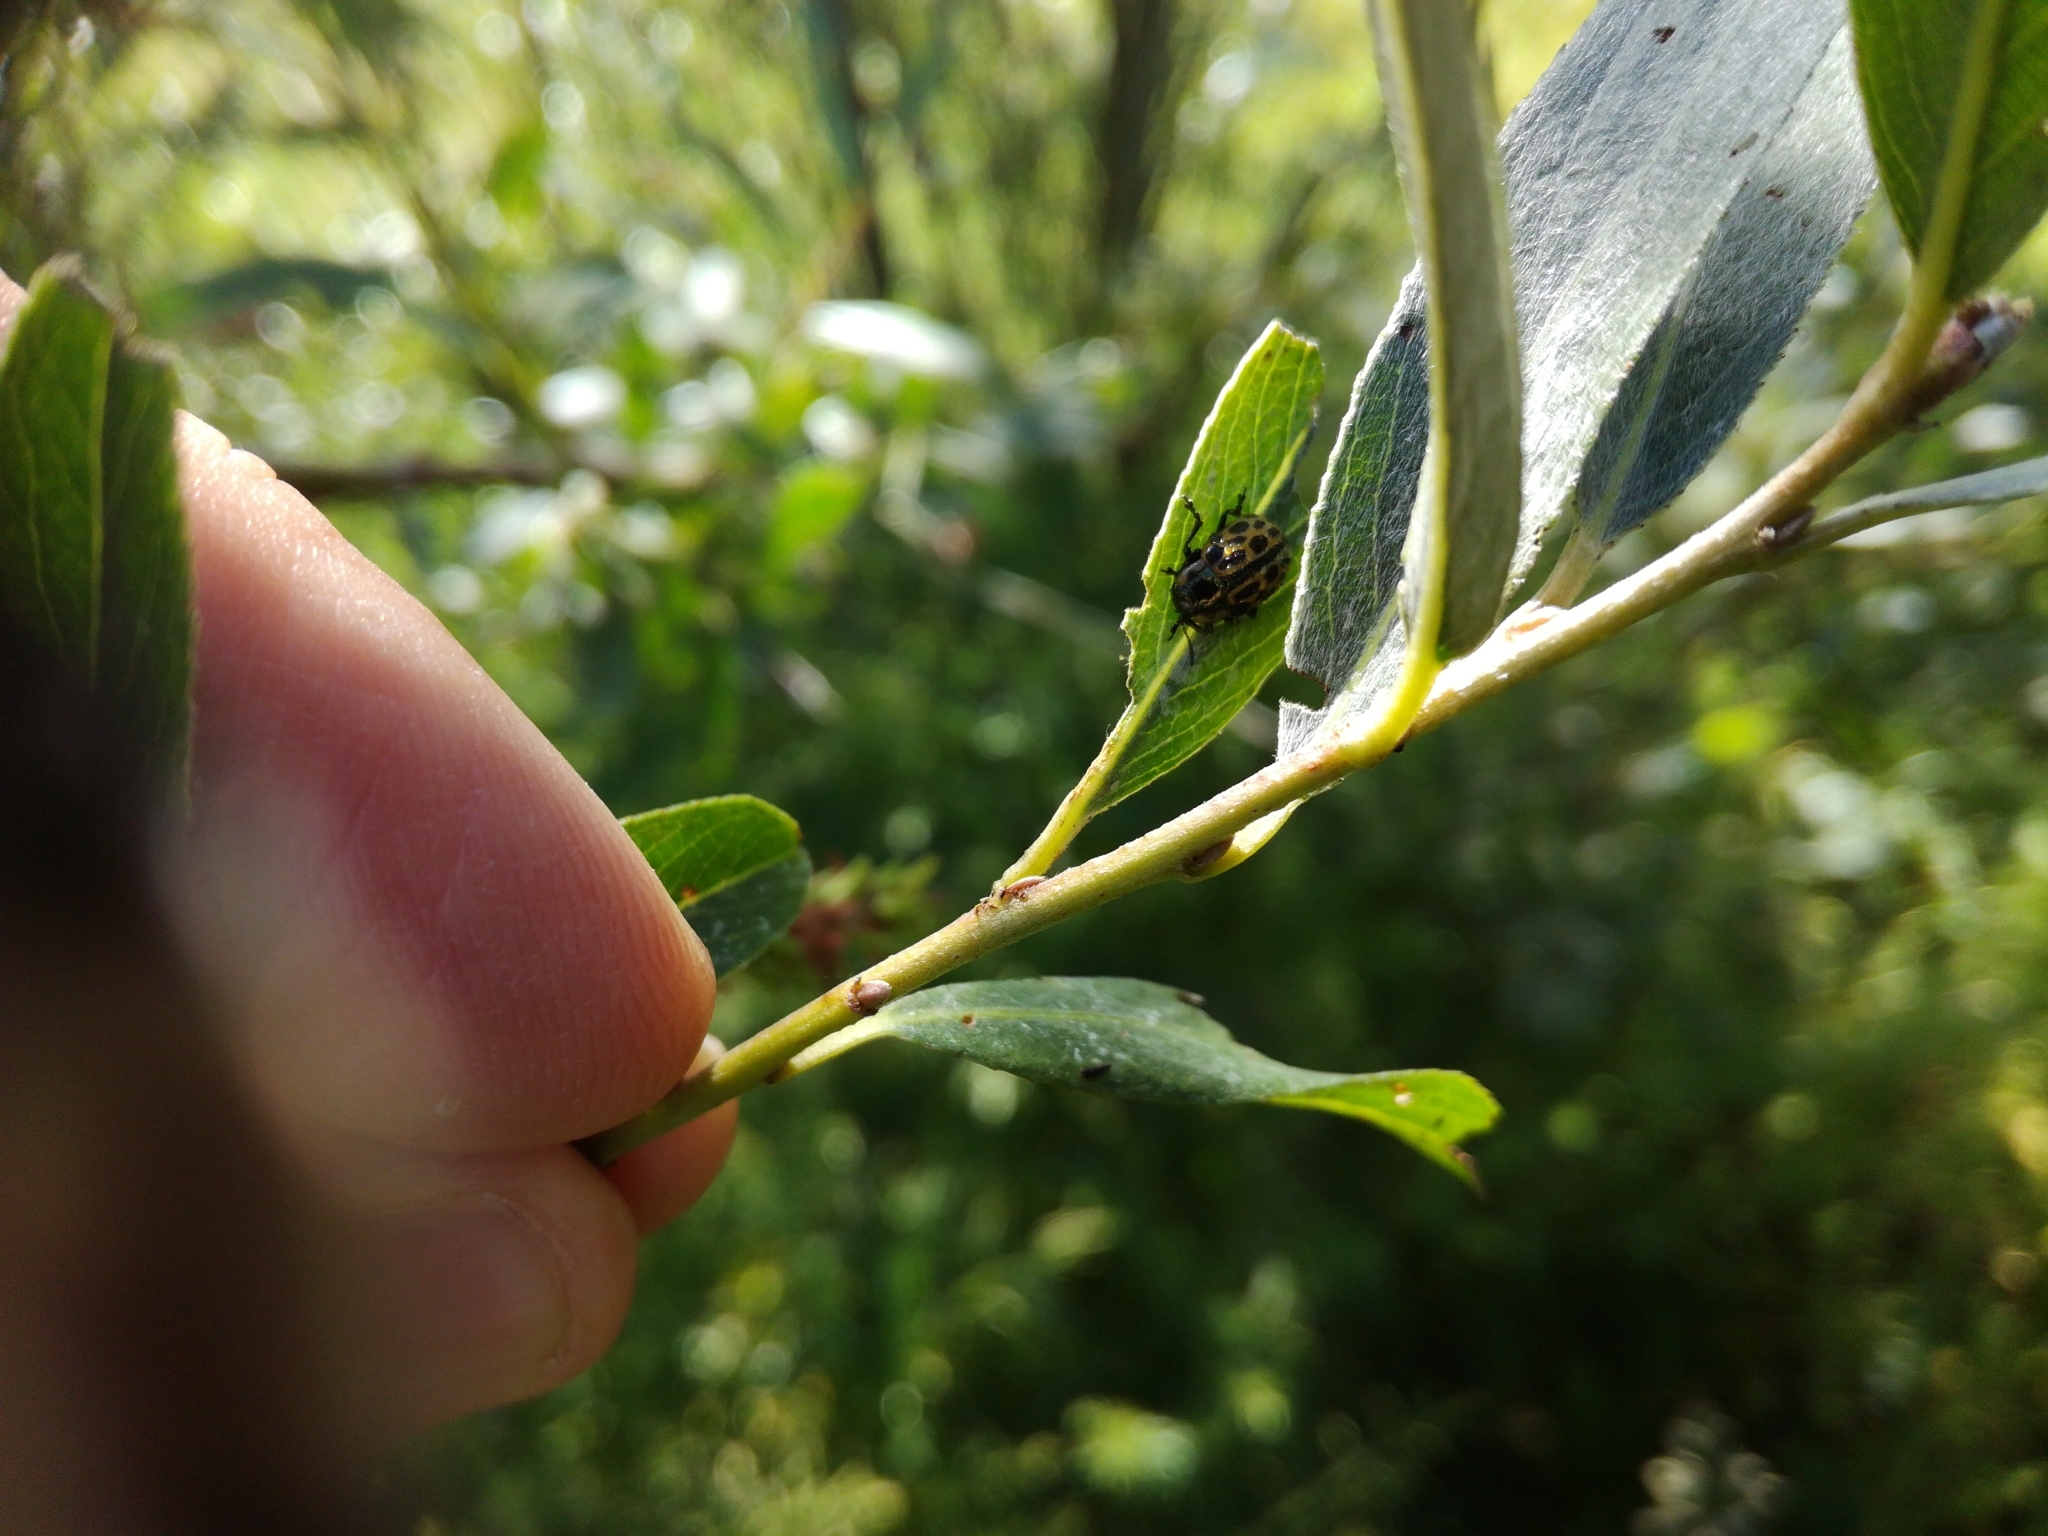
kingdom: Animalia
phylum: Arthropoda
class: Insecta
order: Coleoptera
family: Chrysomelidae
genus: Chrysomela
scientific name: Chrysomela vigintipunctata
